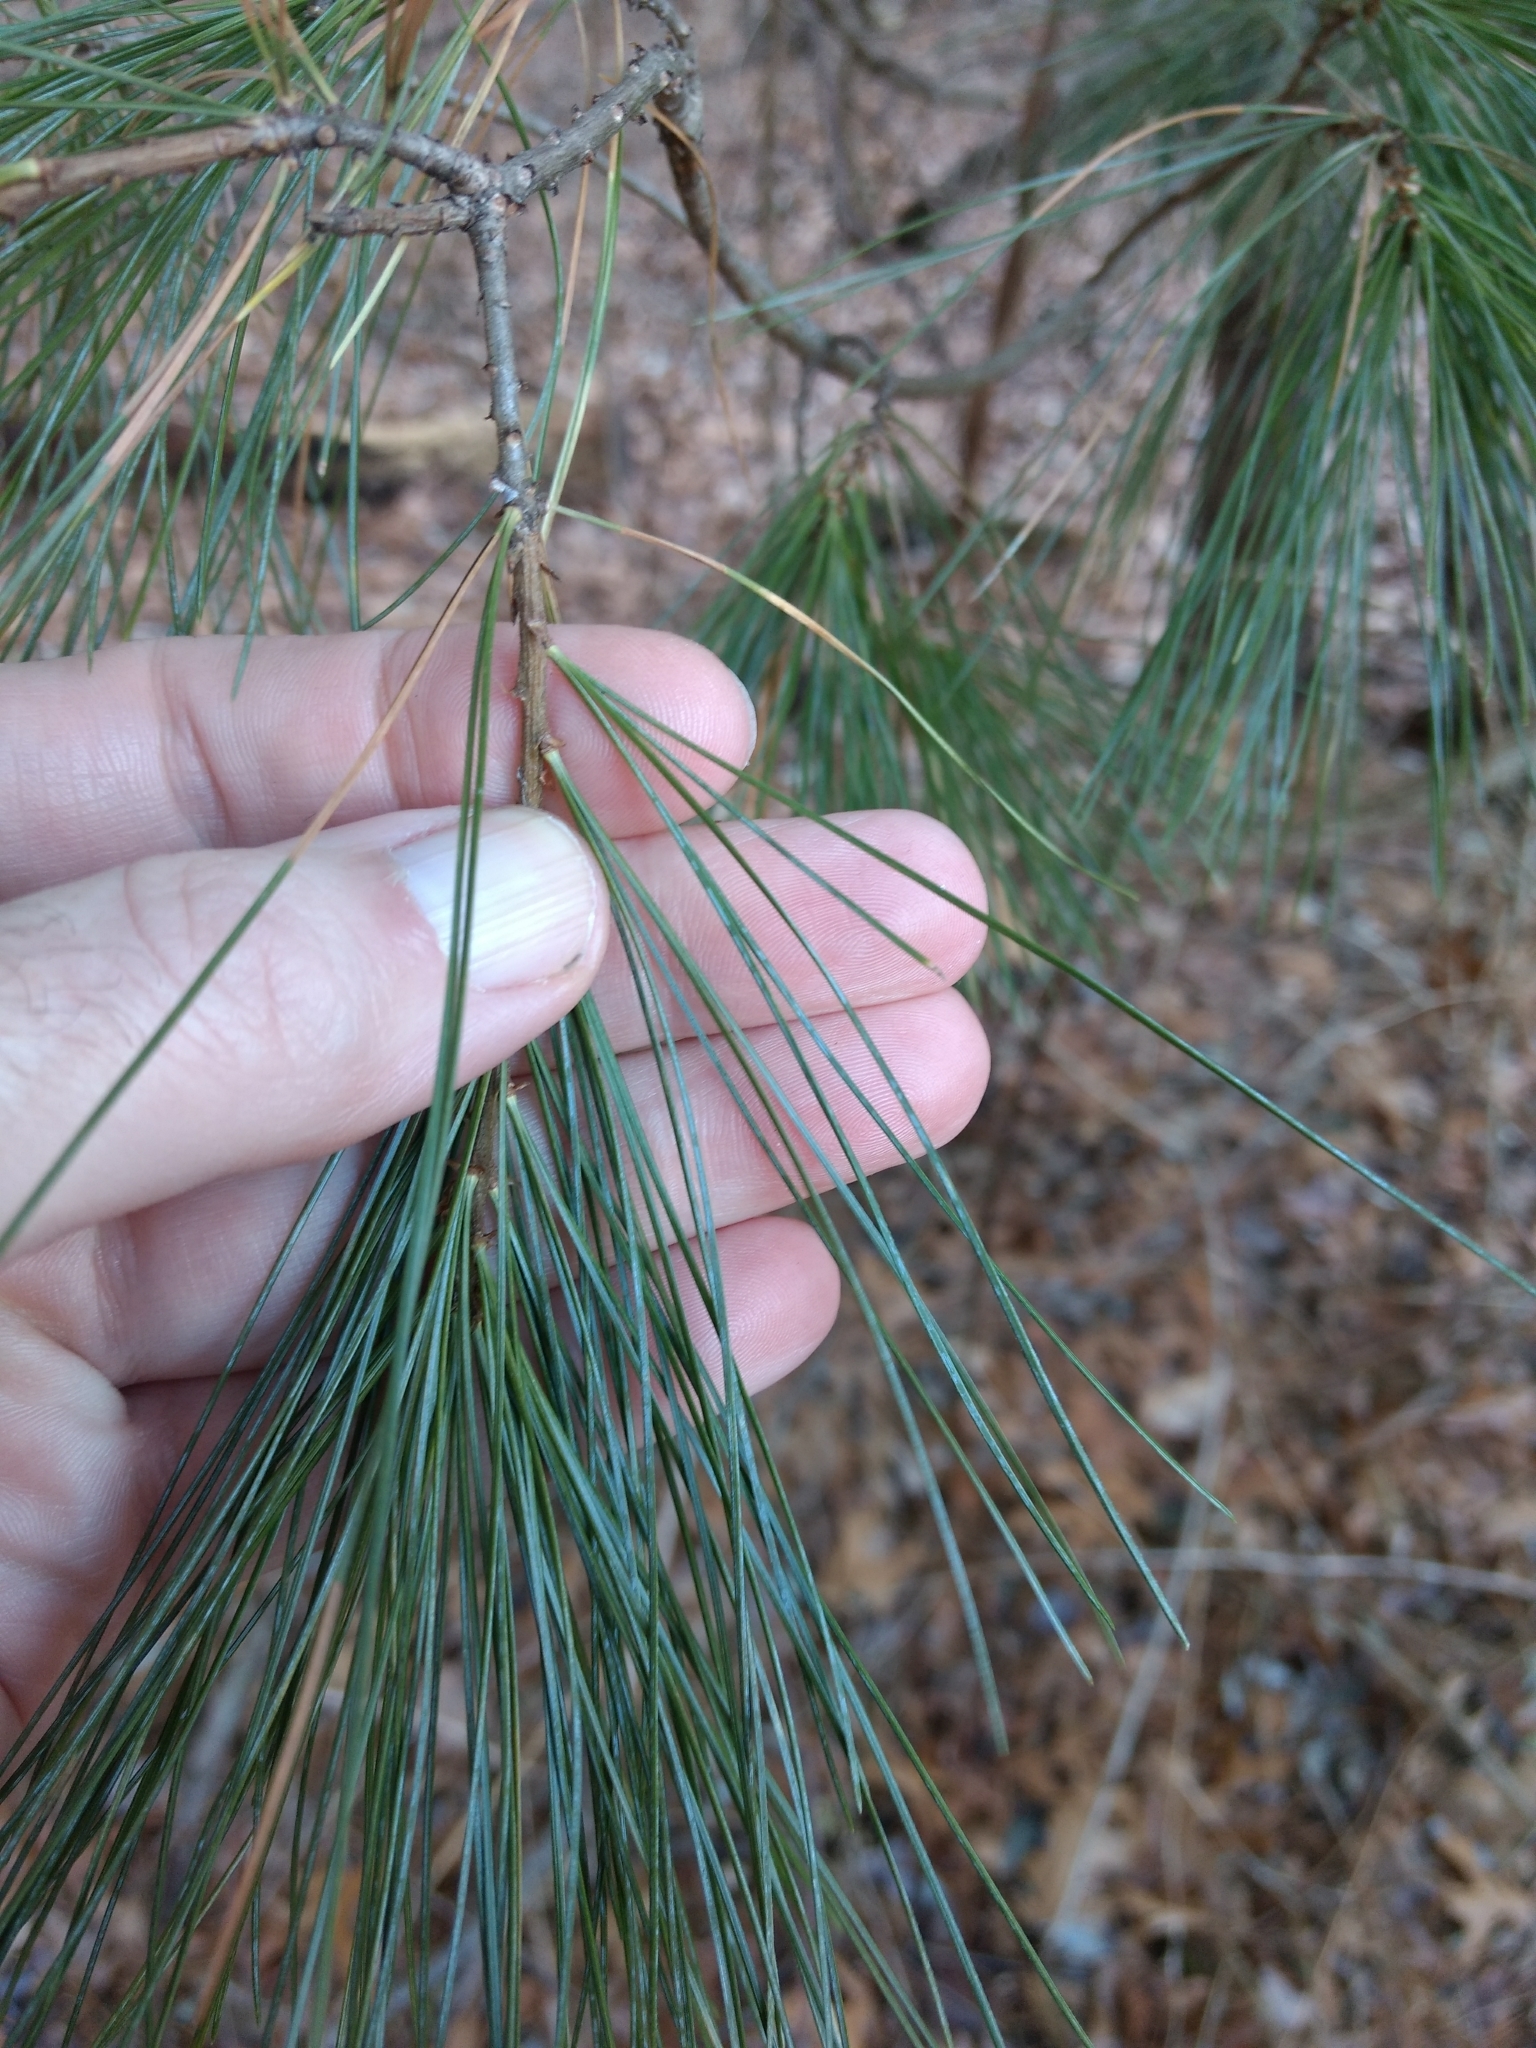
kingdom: Plantae
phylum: Tracheophyta
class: Pinopsida
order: Pinales
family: Pinaceae
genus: Pinus
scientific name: Pinus strobus
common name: Weymouth pine
